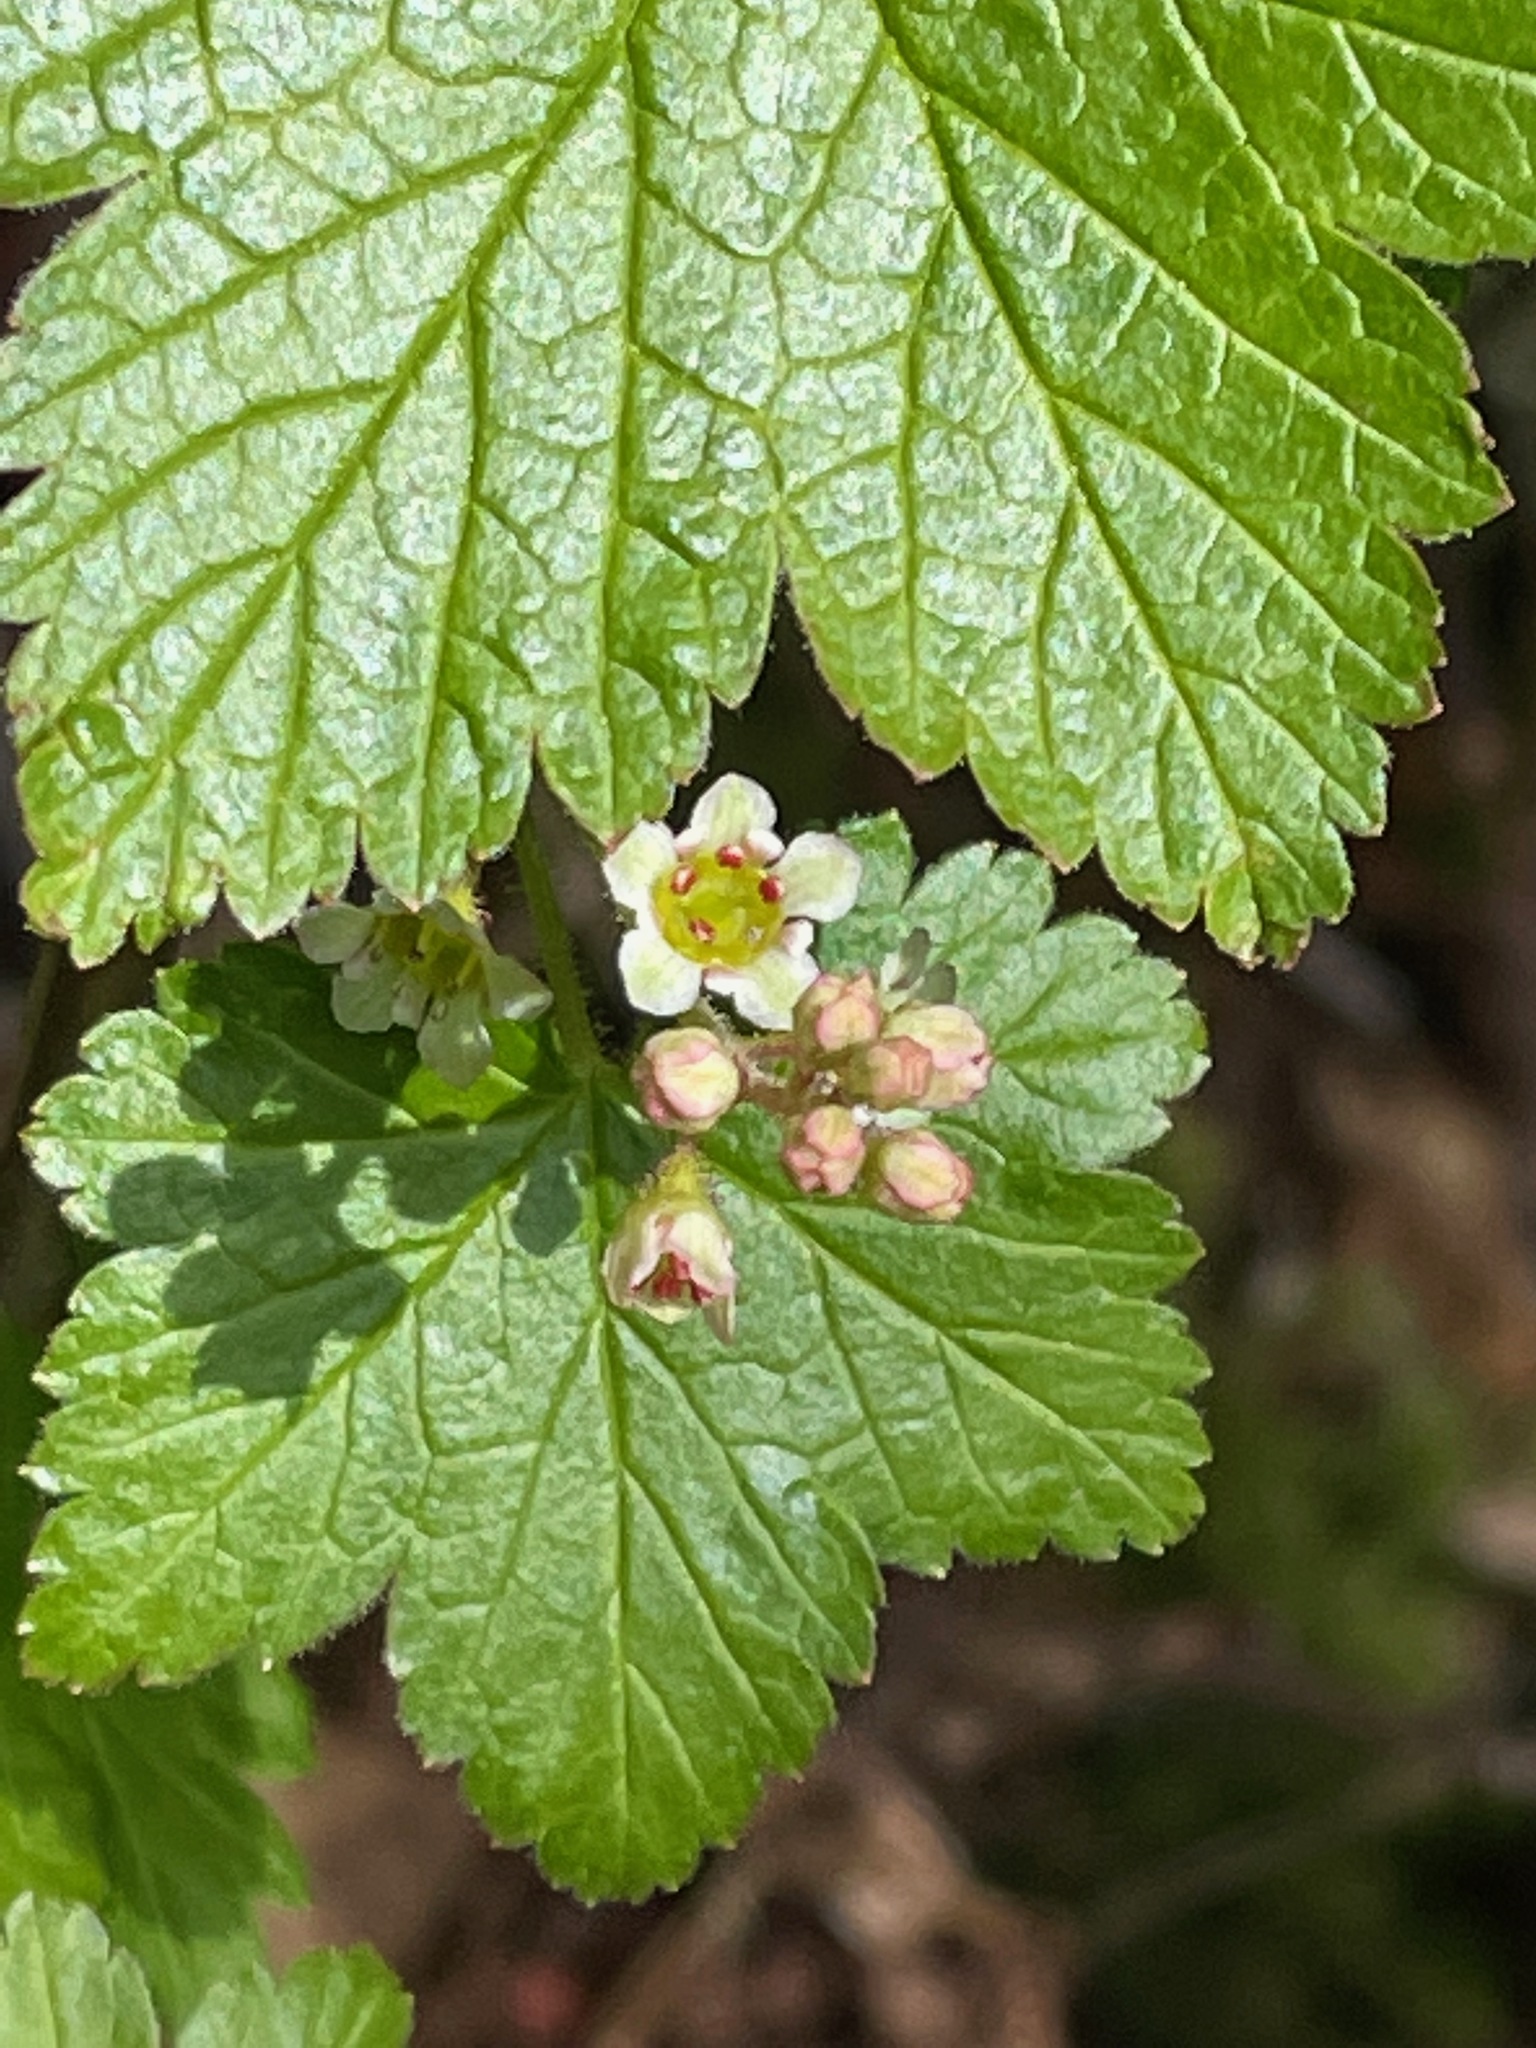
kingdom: Plantae
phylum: Tracheophyta
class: Magnoliopsida
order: Saxifragales
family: Grossulariaceae
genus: Ribes
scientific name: Ribes glandulosum
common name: Skunk currant
